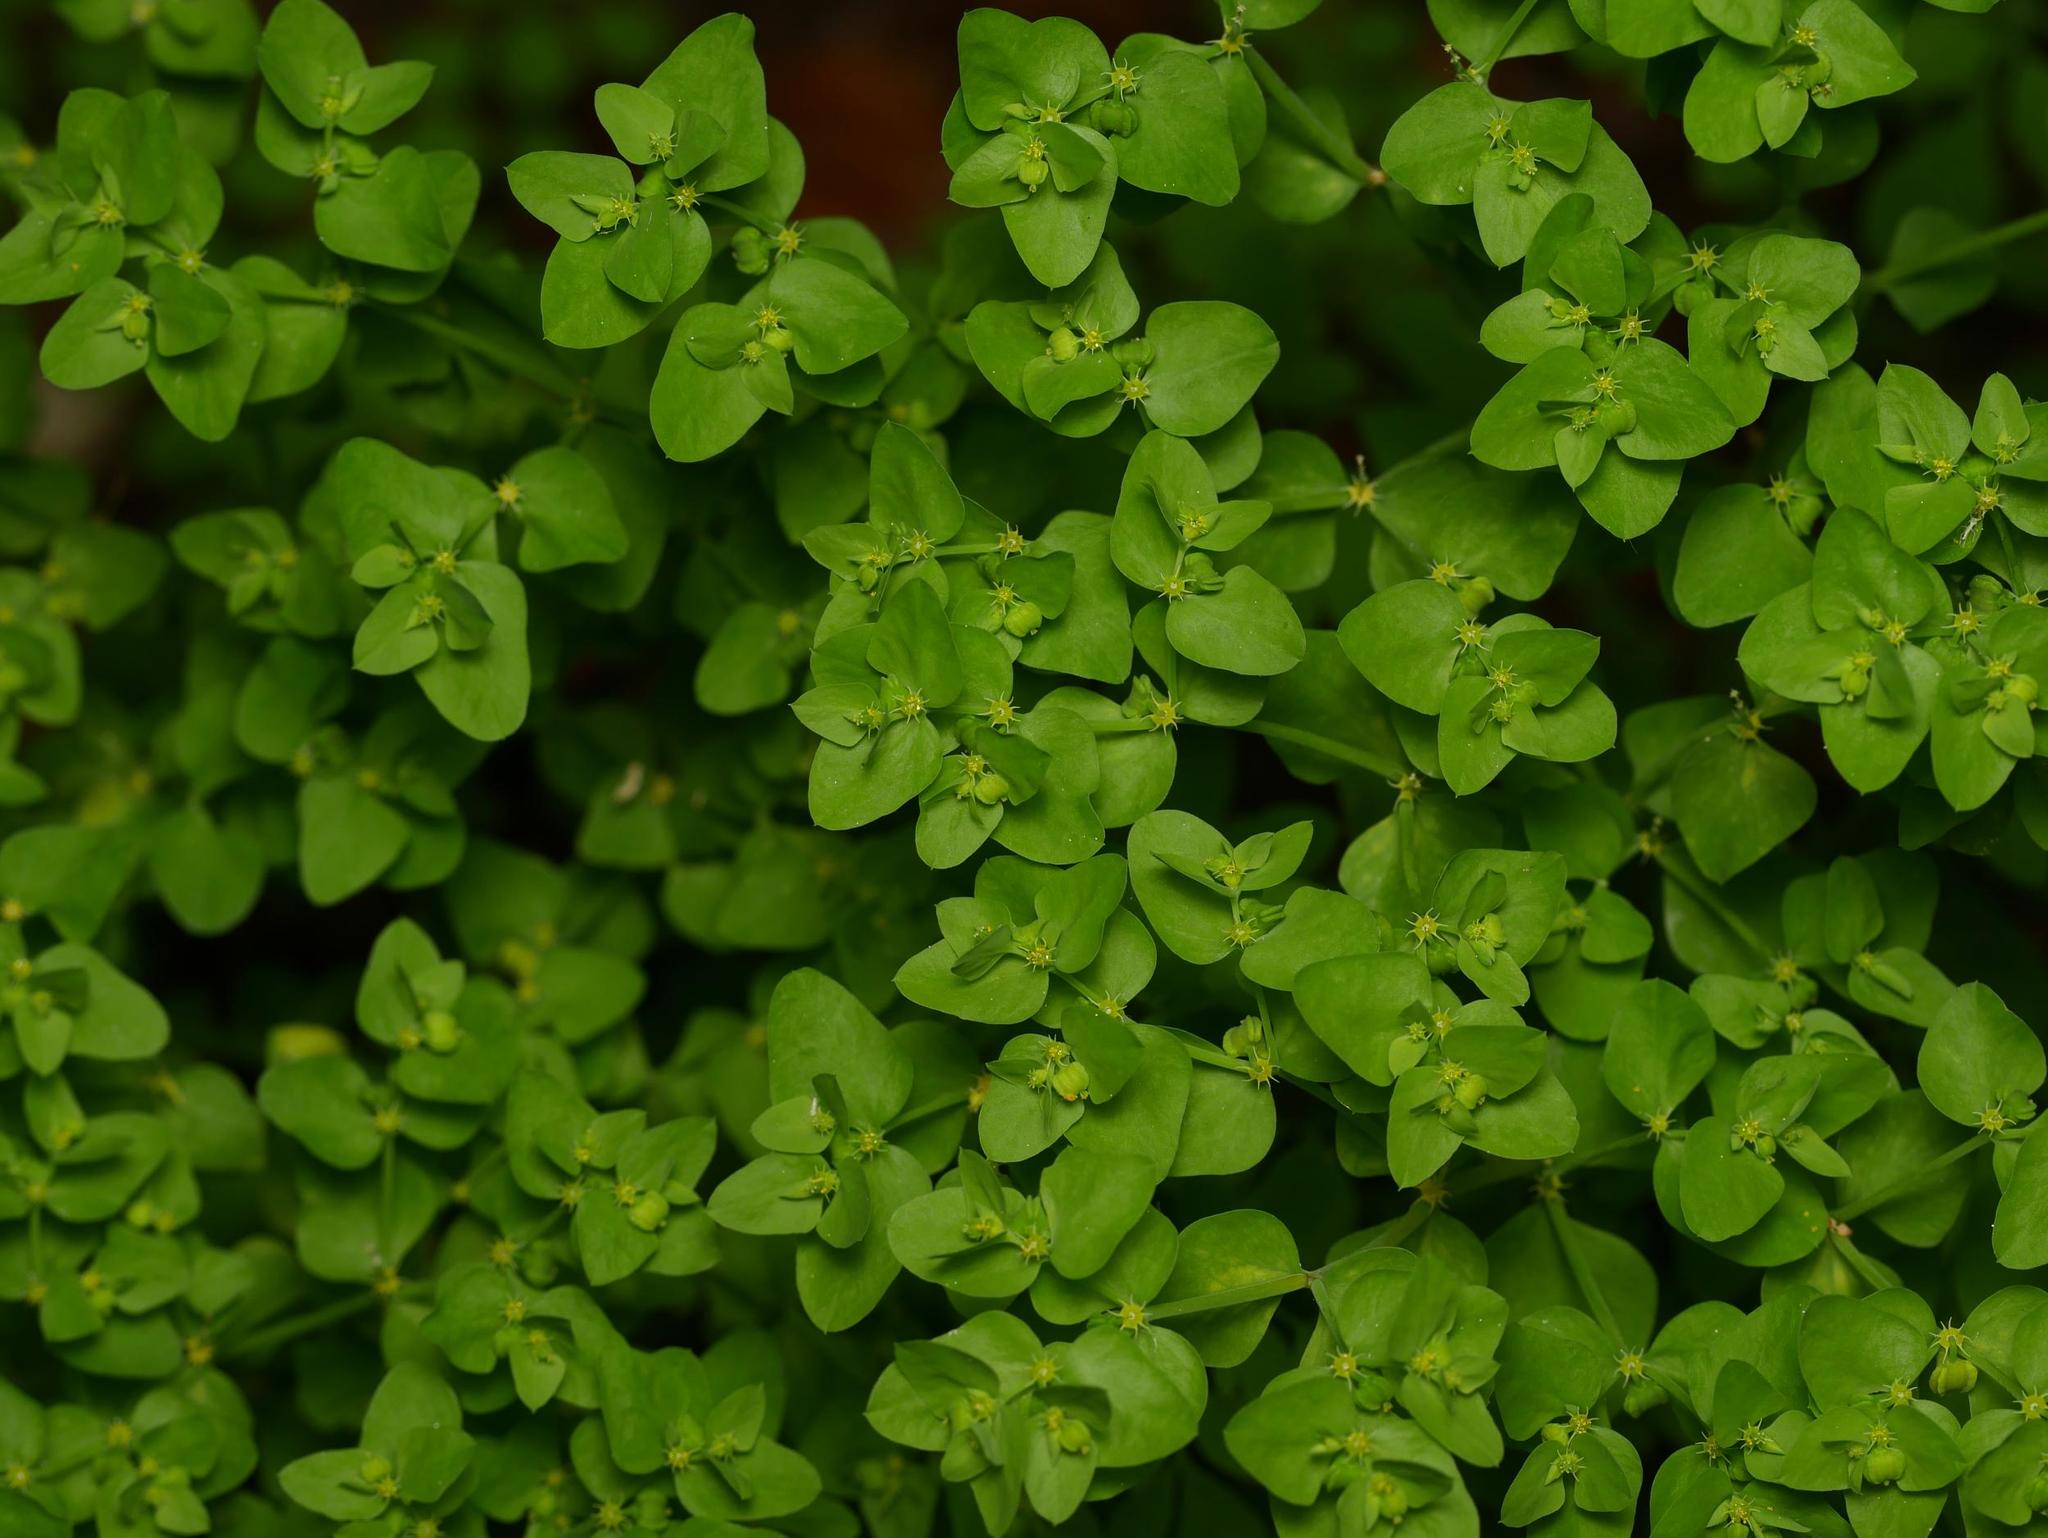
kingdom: Plantae
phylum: Tracheophyta
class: Magnoliopsida
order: Malpighiales
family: Euphorbiaceae
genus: Euphorbia
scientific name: Euphorbia peplus
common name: Petty spurge
